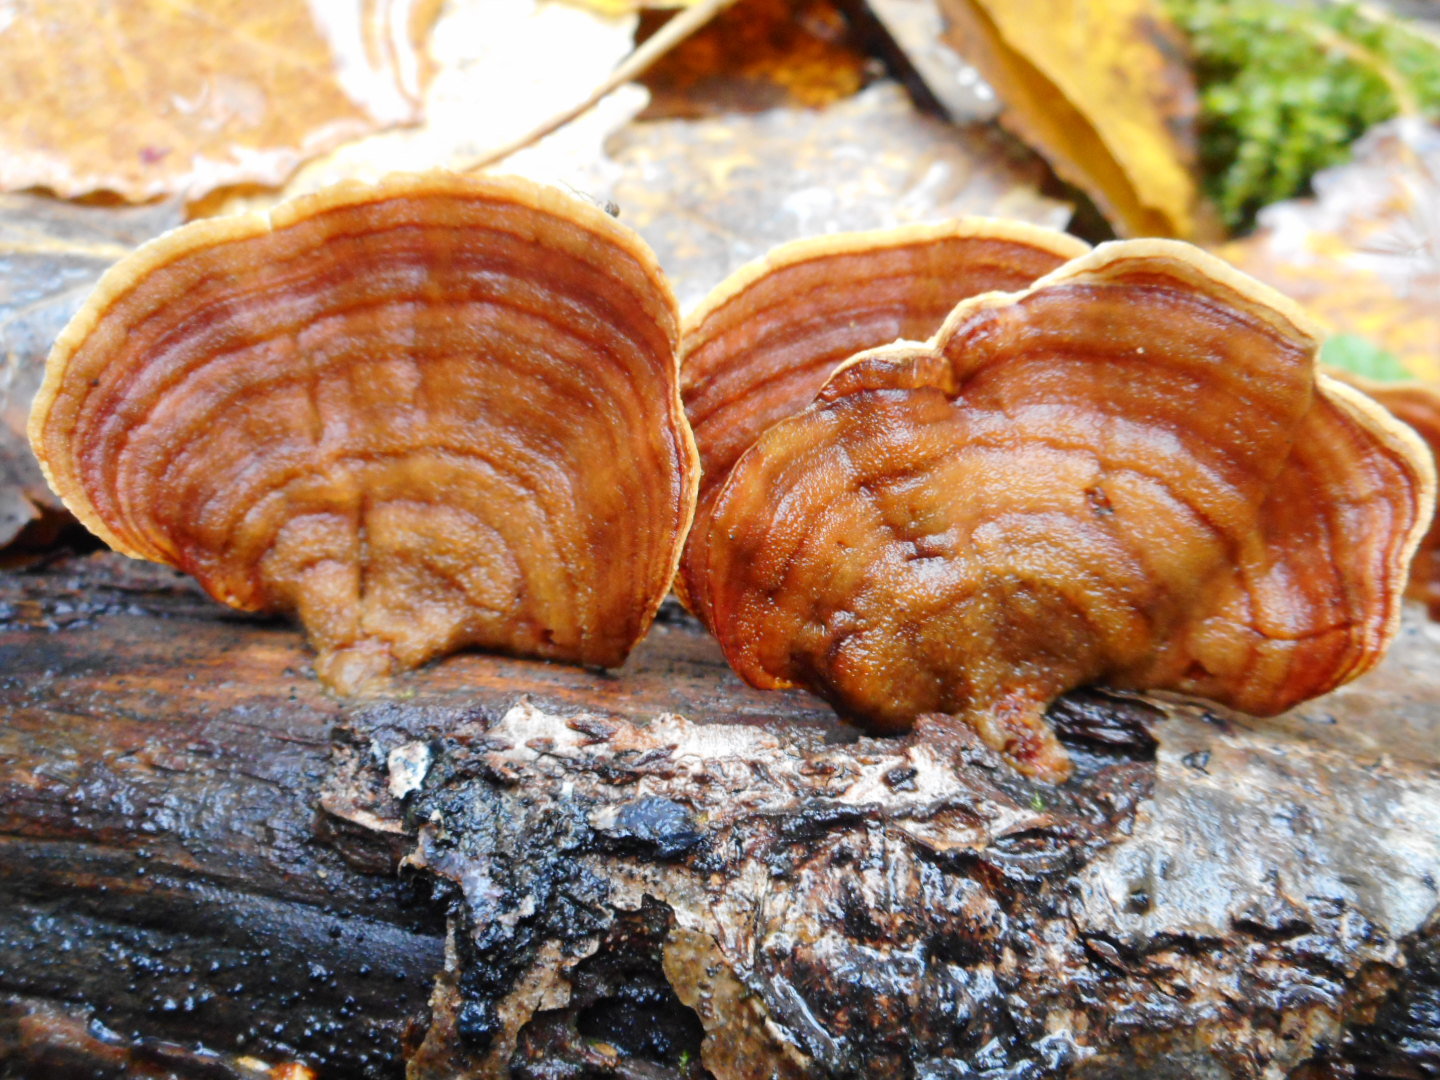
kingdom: Fungi
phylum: Basidiomycota
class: Agaricomycetes
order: Russulales
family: Stereaceae
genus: Stereum
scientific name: Stereum subtomentosum
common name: Yellowing curtain crust
